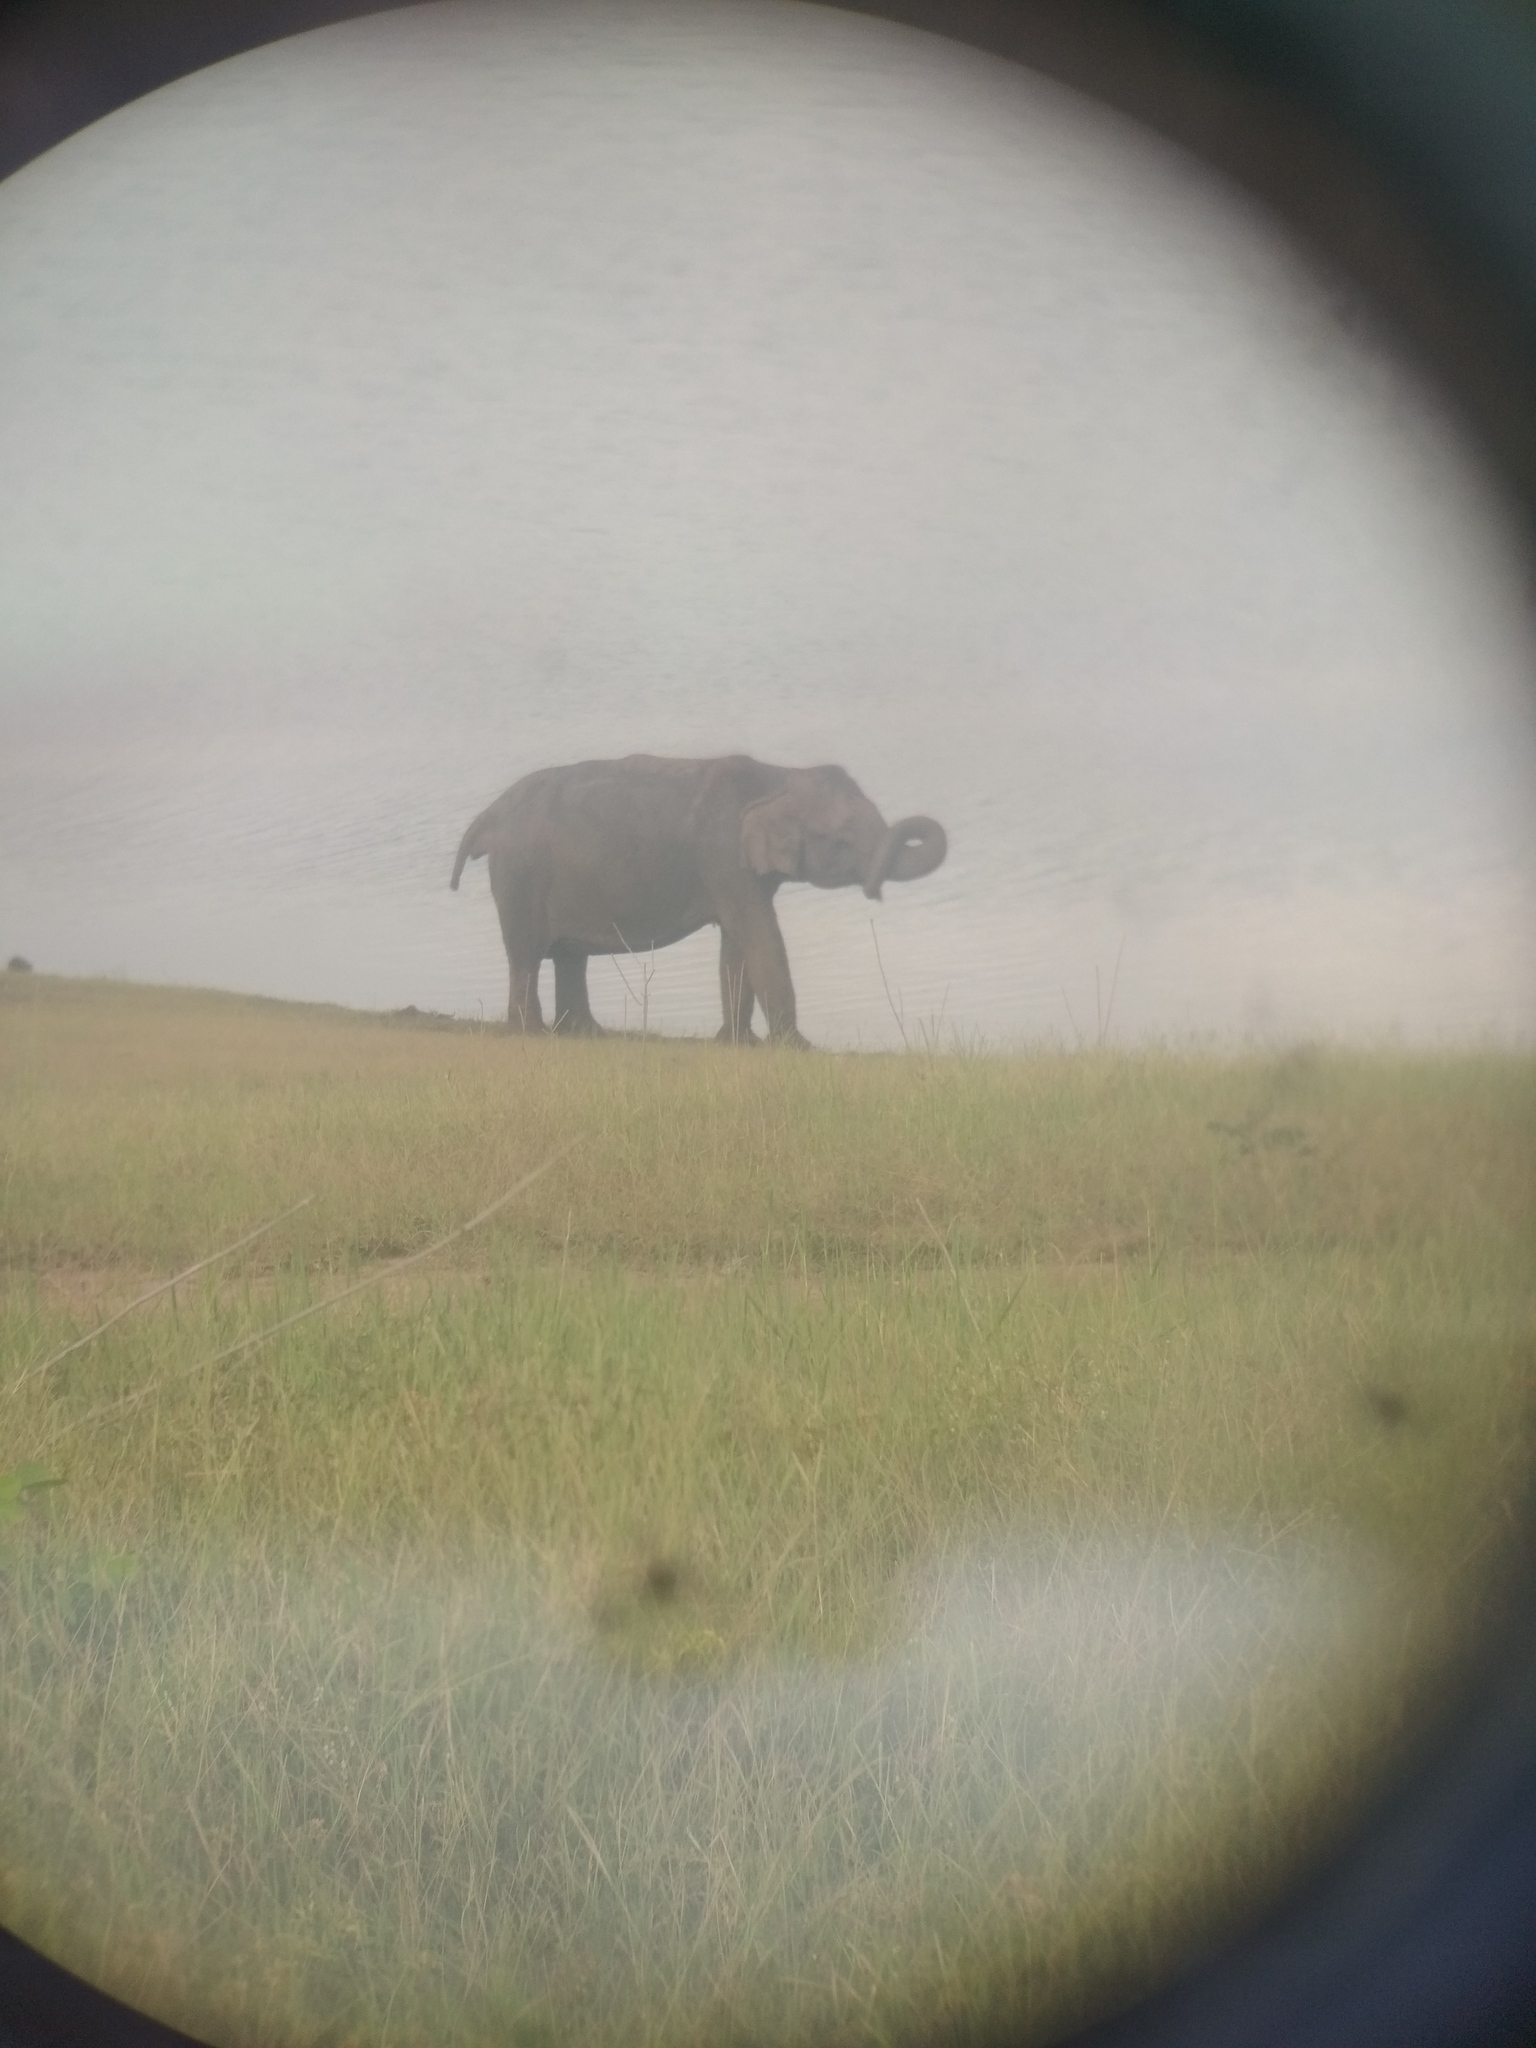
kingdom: Animalia
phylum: Chordata
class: Mammalia
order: Proboscidea
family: Elephantidae
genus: Elephas
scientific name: Elephas maximus
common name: Asian elephant
